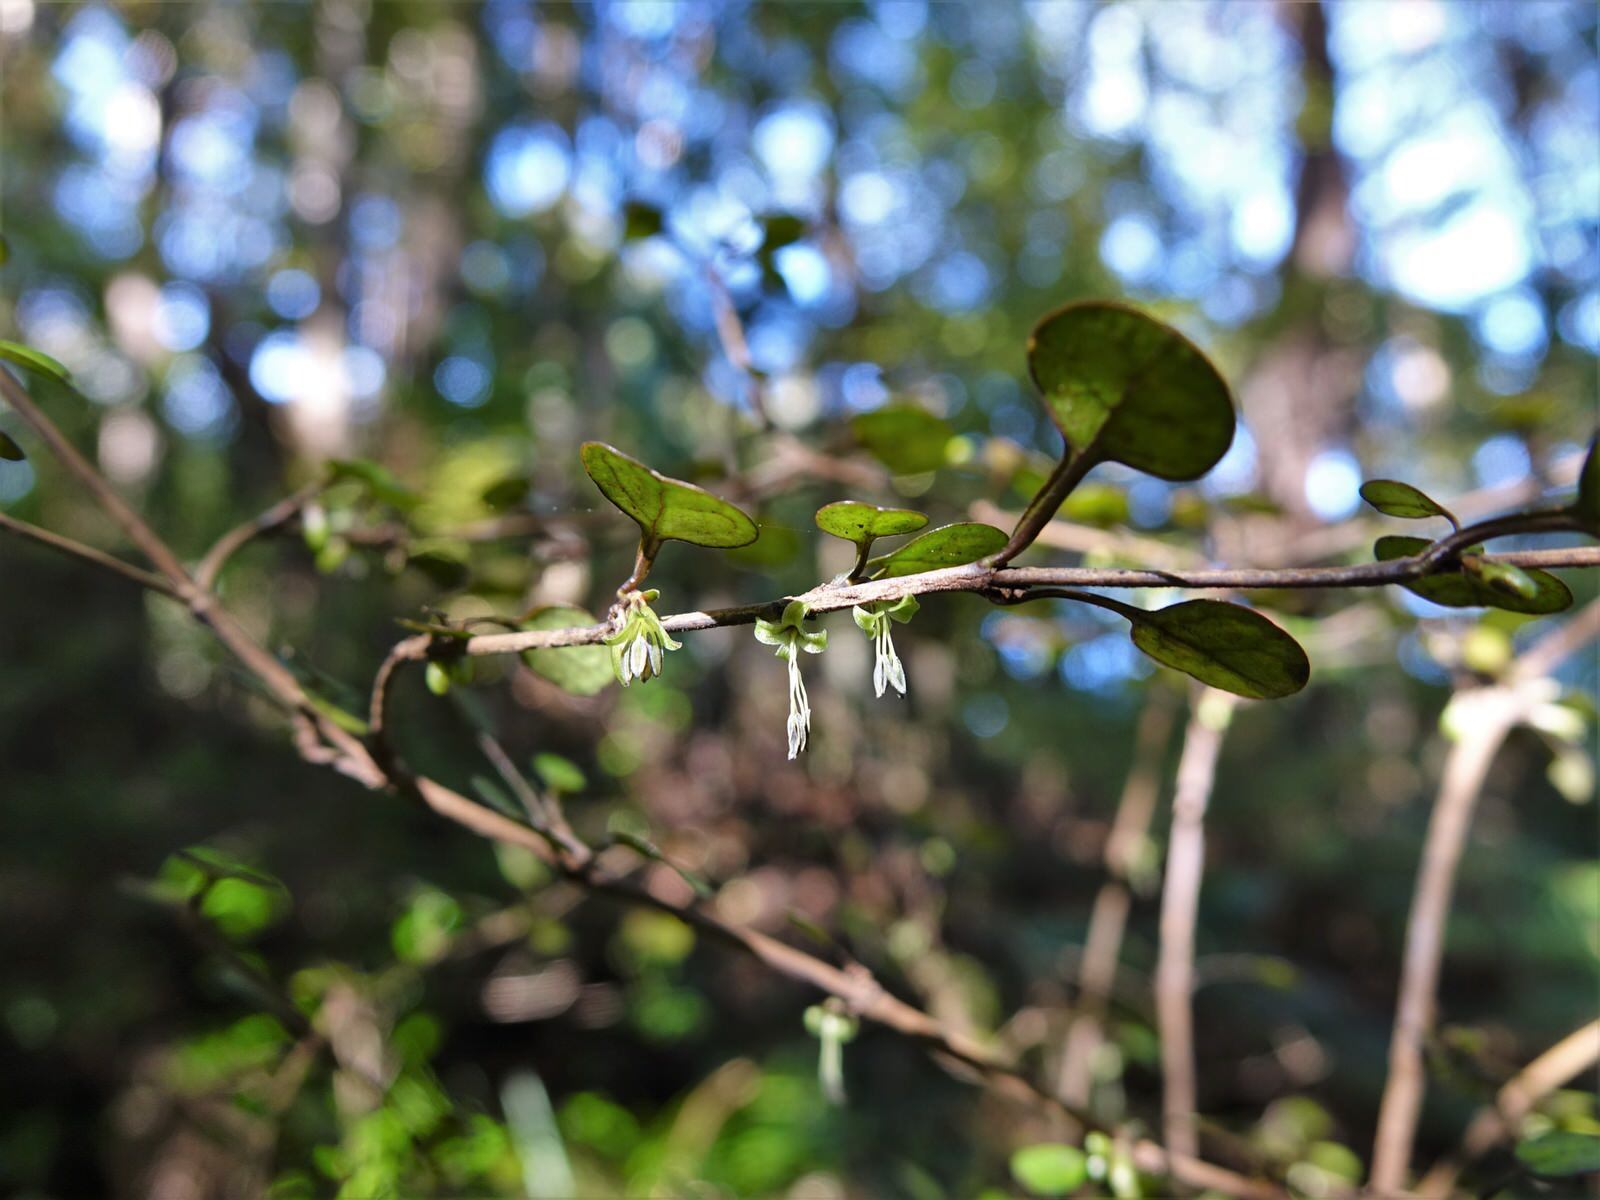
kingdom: Plantae
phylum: Tracheophyta
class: Magnoliopsida
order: Gentianales
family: Rubiaceae
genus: Coprosma
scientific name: Coprosma spathulata
